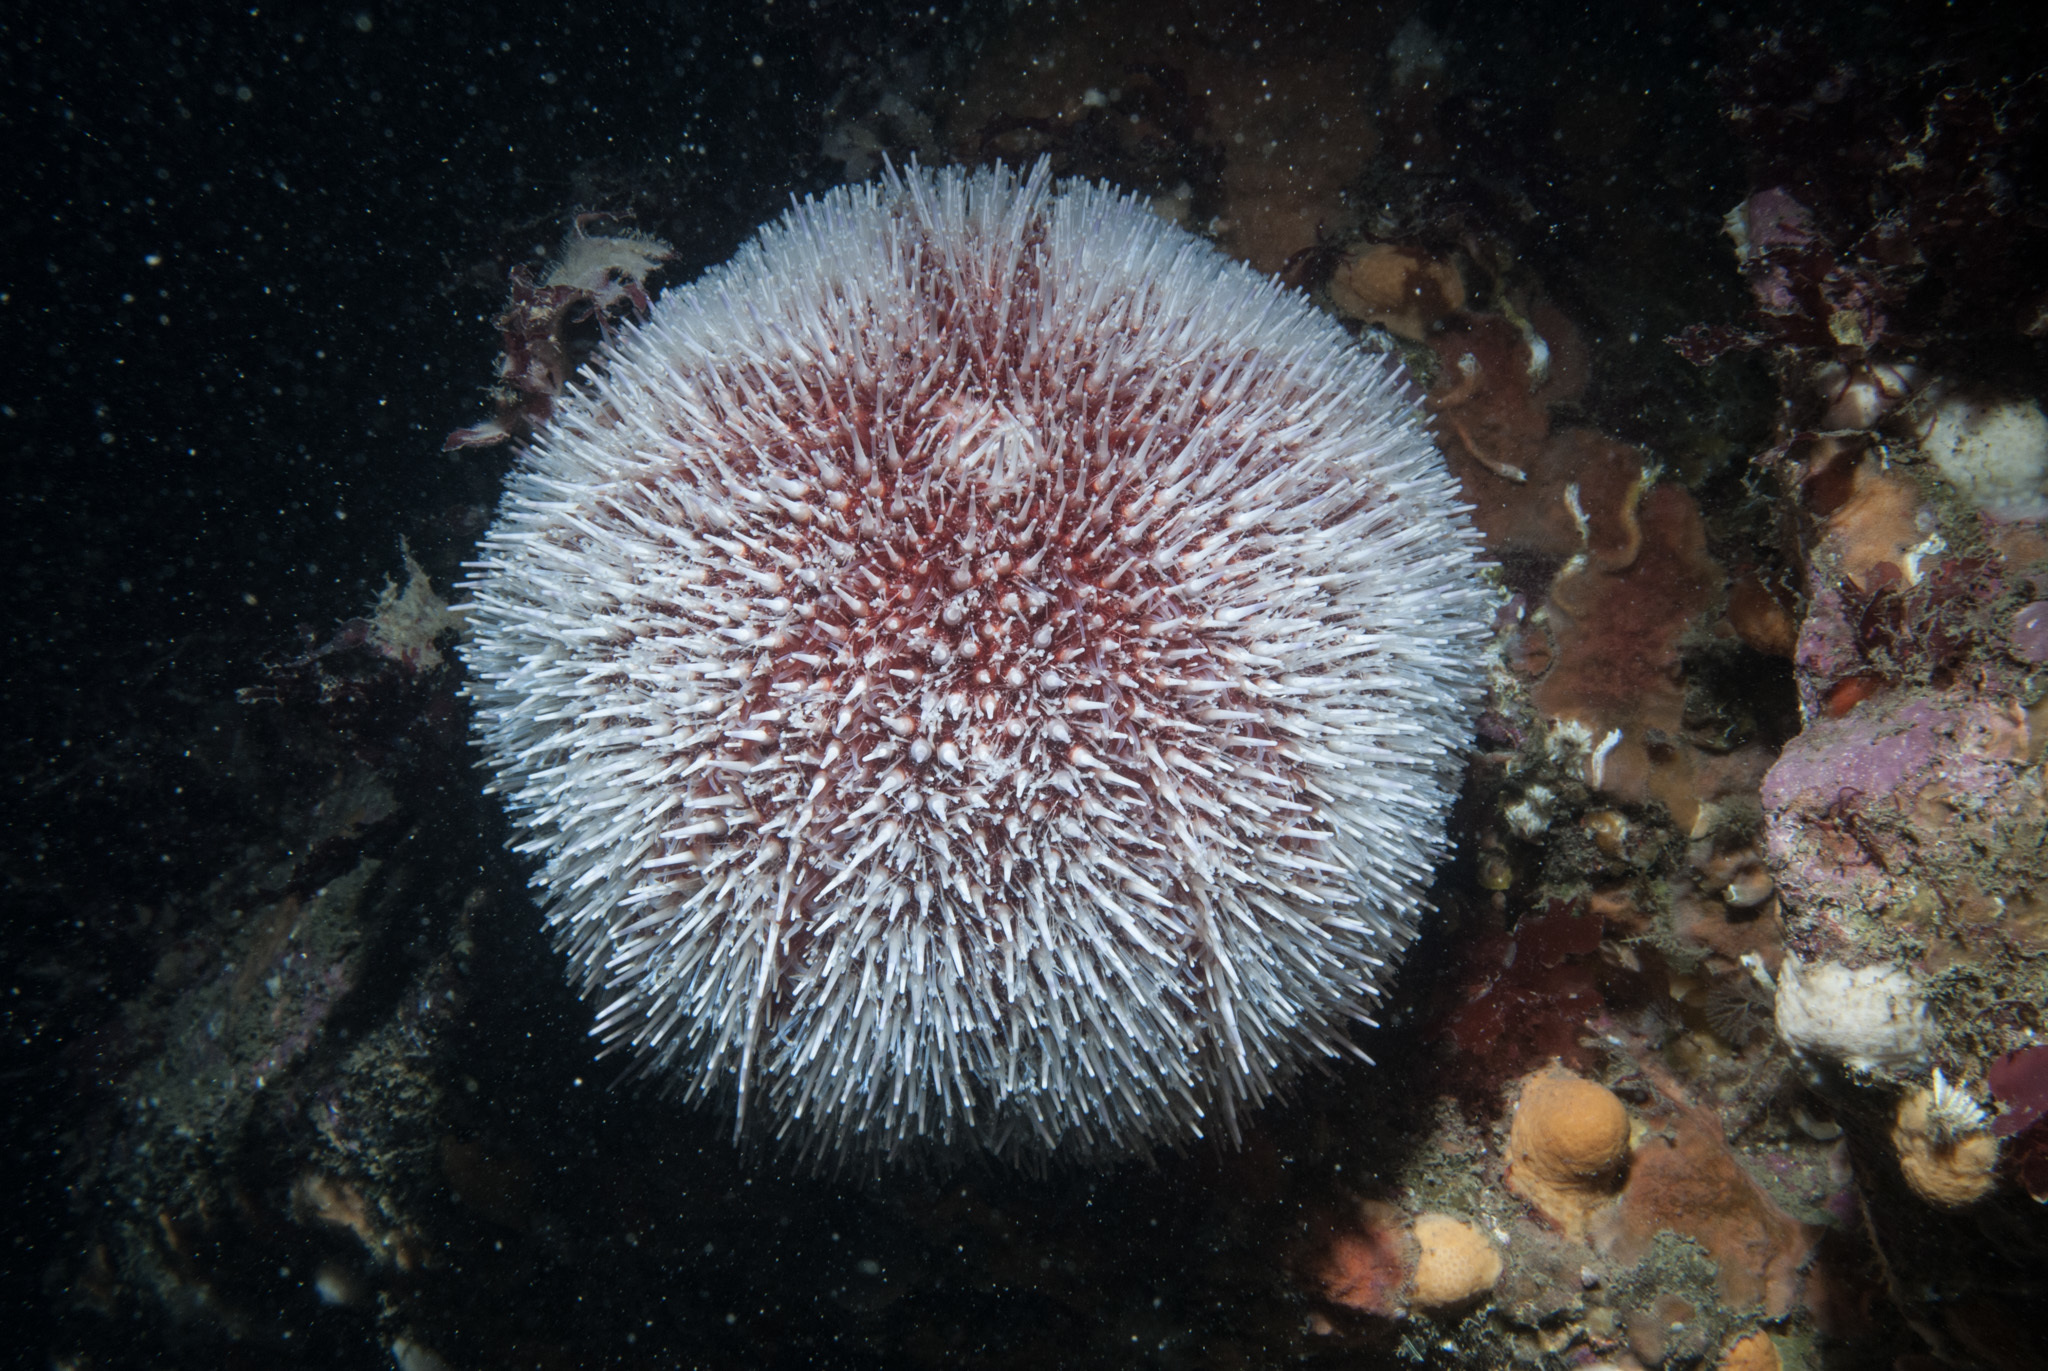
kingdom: Animalia
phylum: Echinodermata
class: Echinoidea
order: Camarodonta
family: Echinidae
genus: Echinus
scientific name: Echinus esculentus
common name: Edible sea urchin
